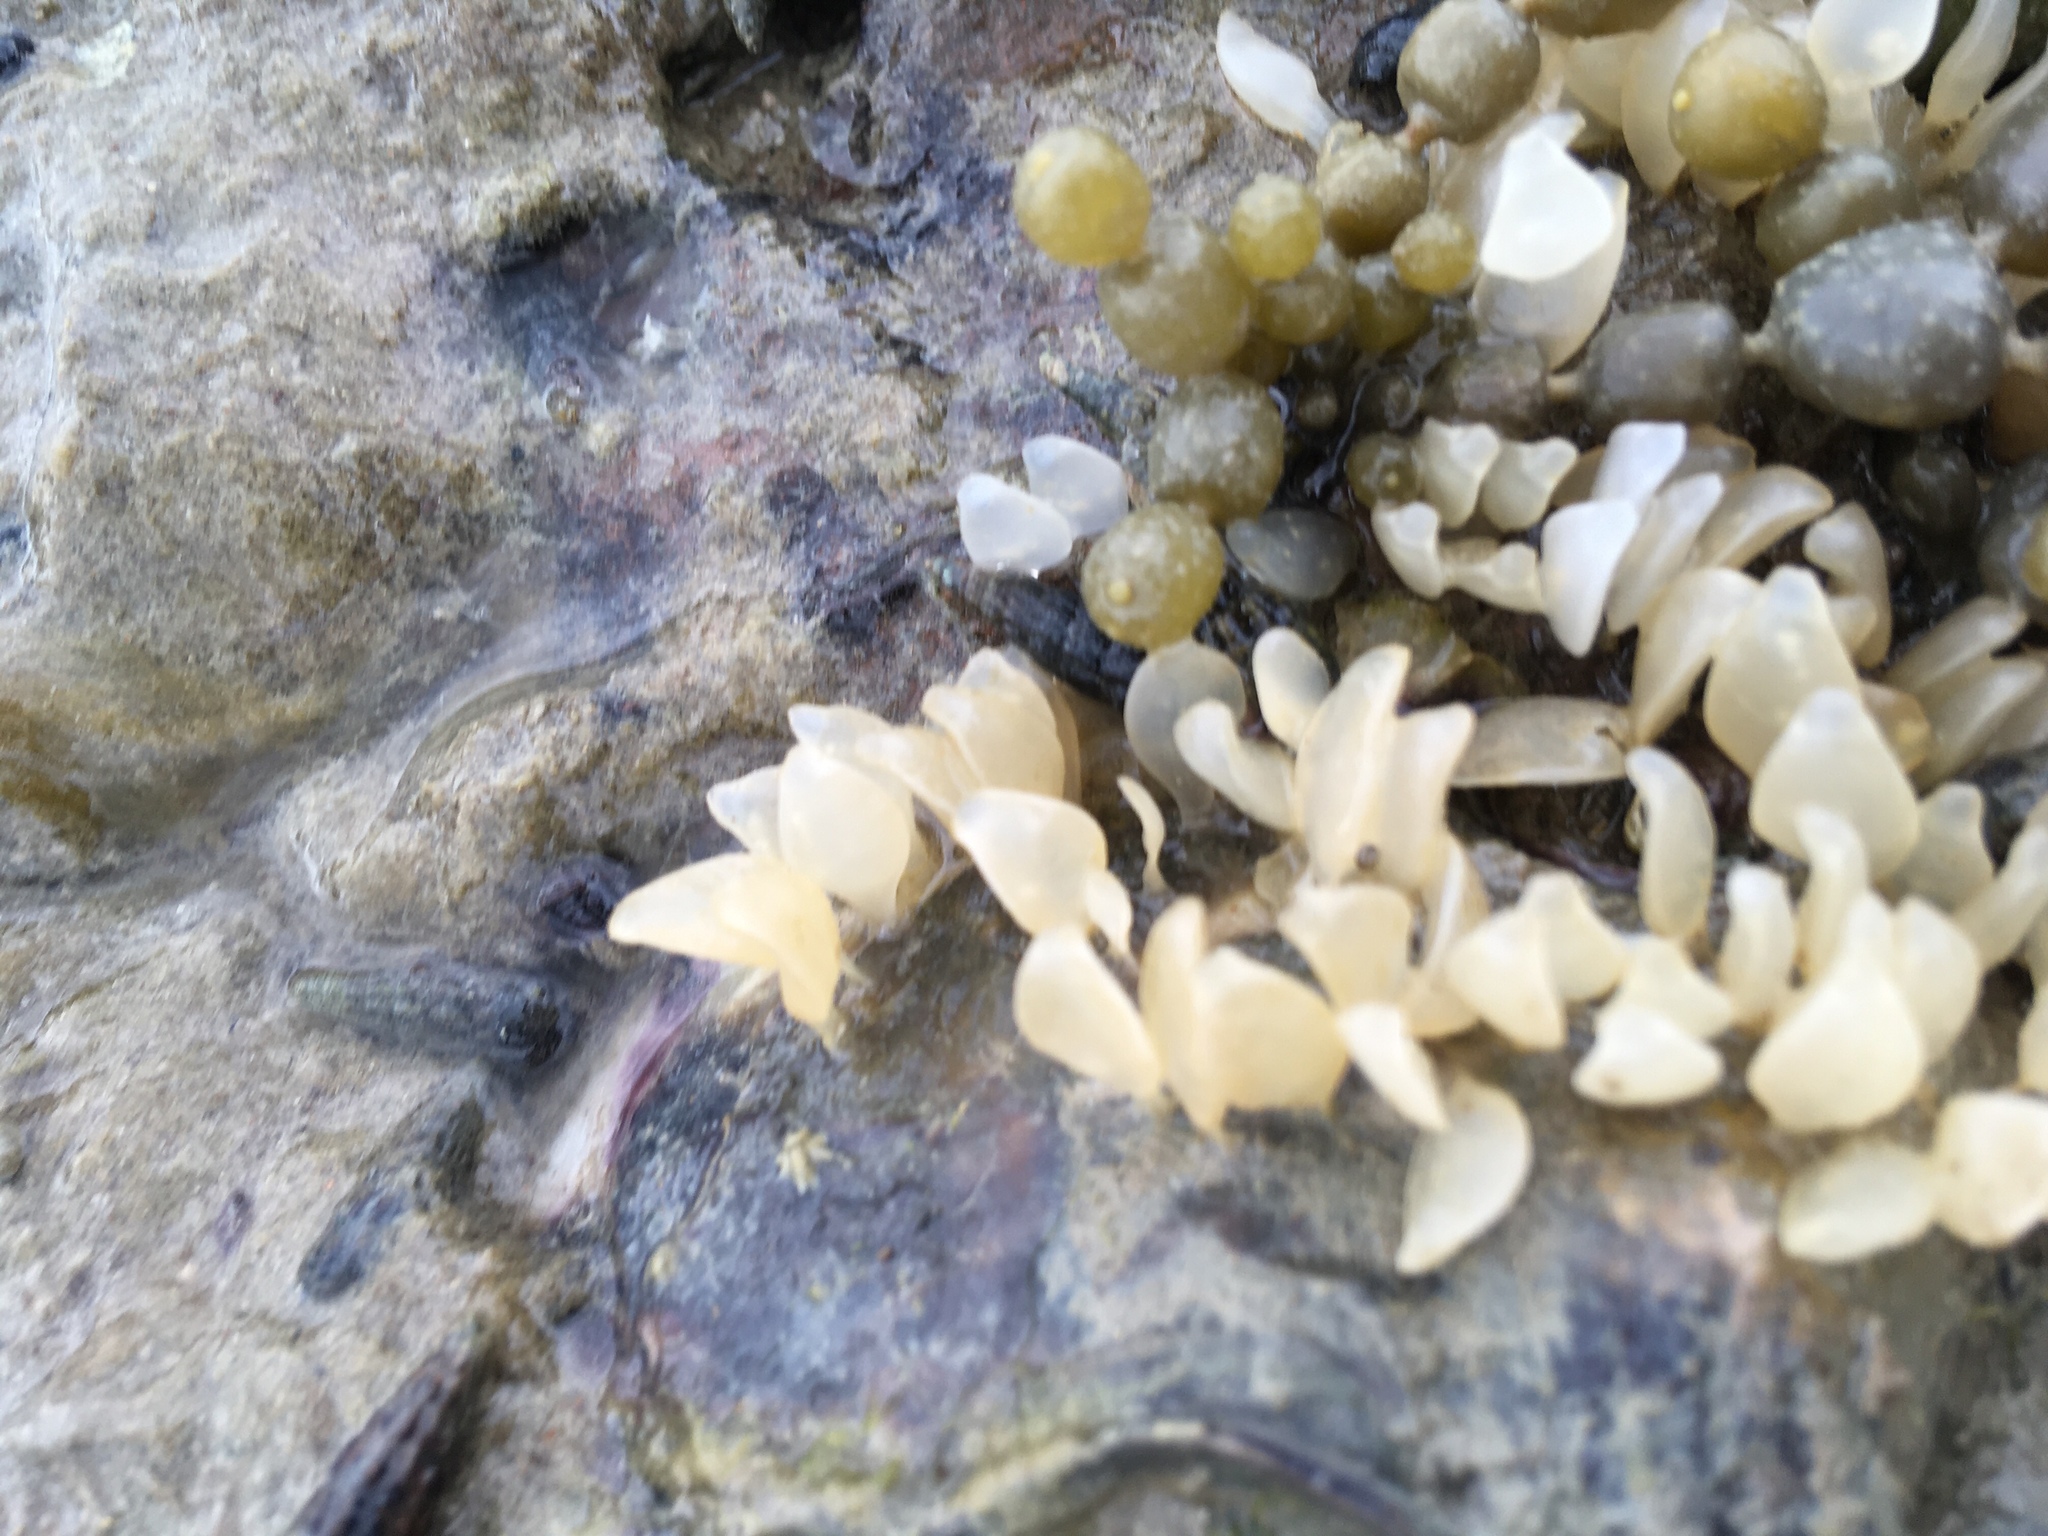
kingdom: Animalia
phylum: Mollusca
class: Gastropoda
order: Neogastropoda
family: Cominellidae
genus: Cominella
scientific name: Cominella adspersa
